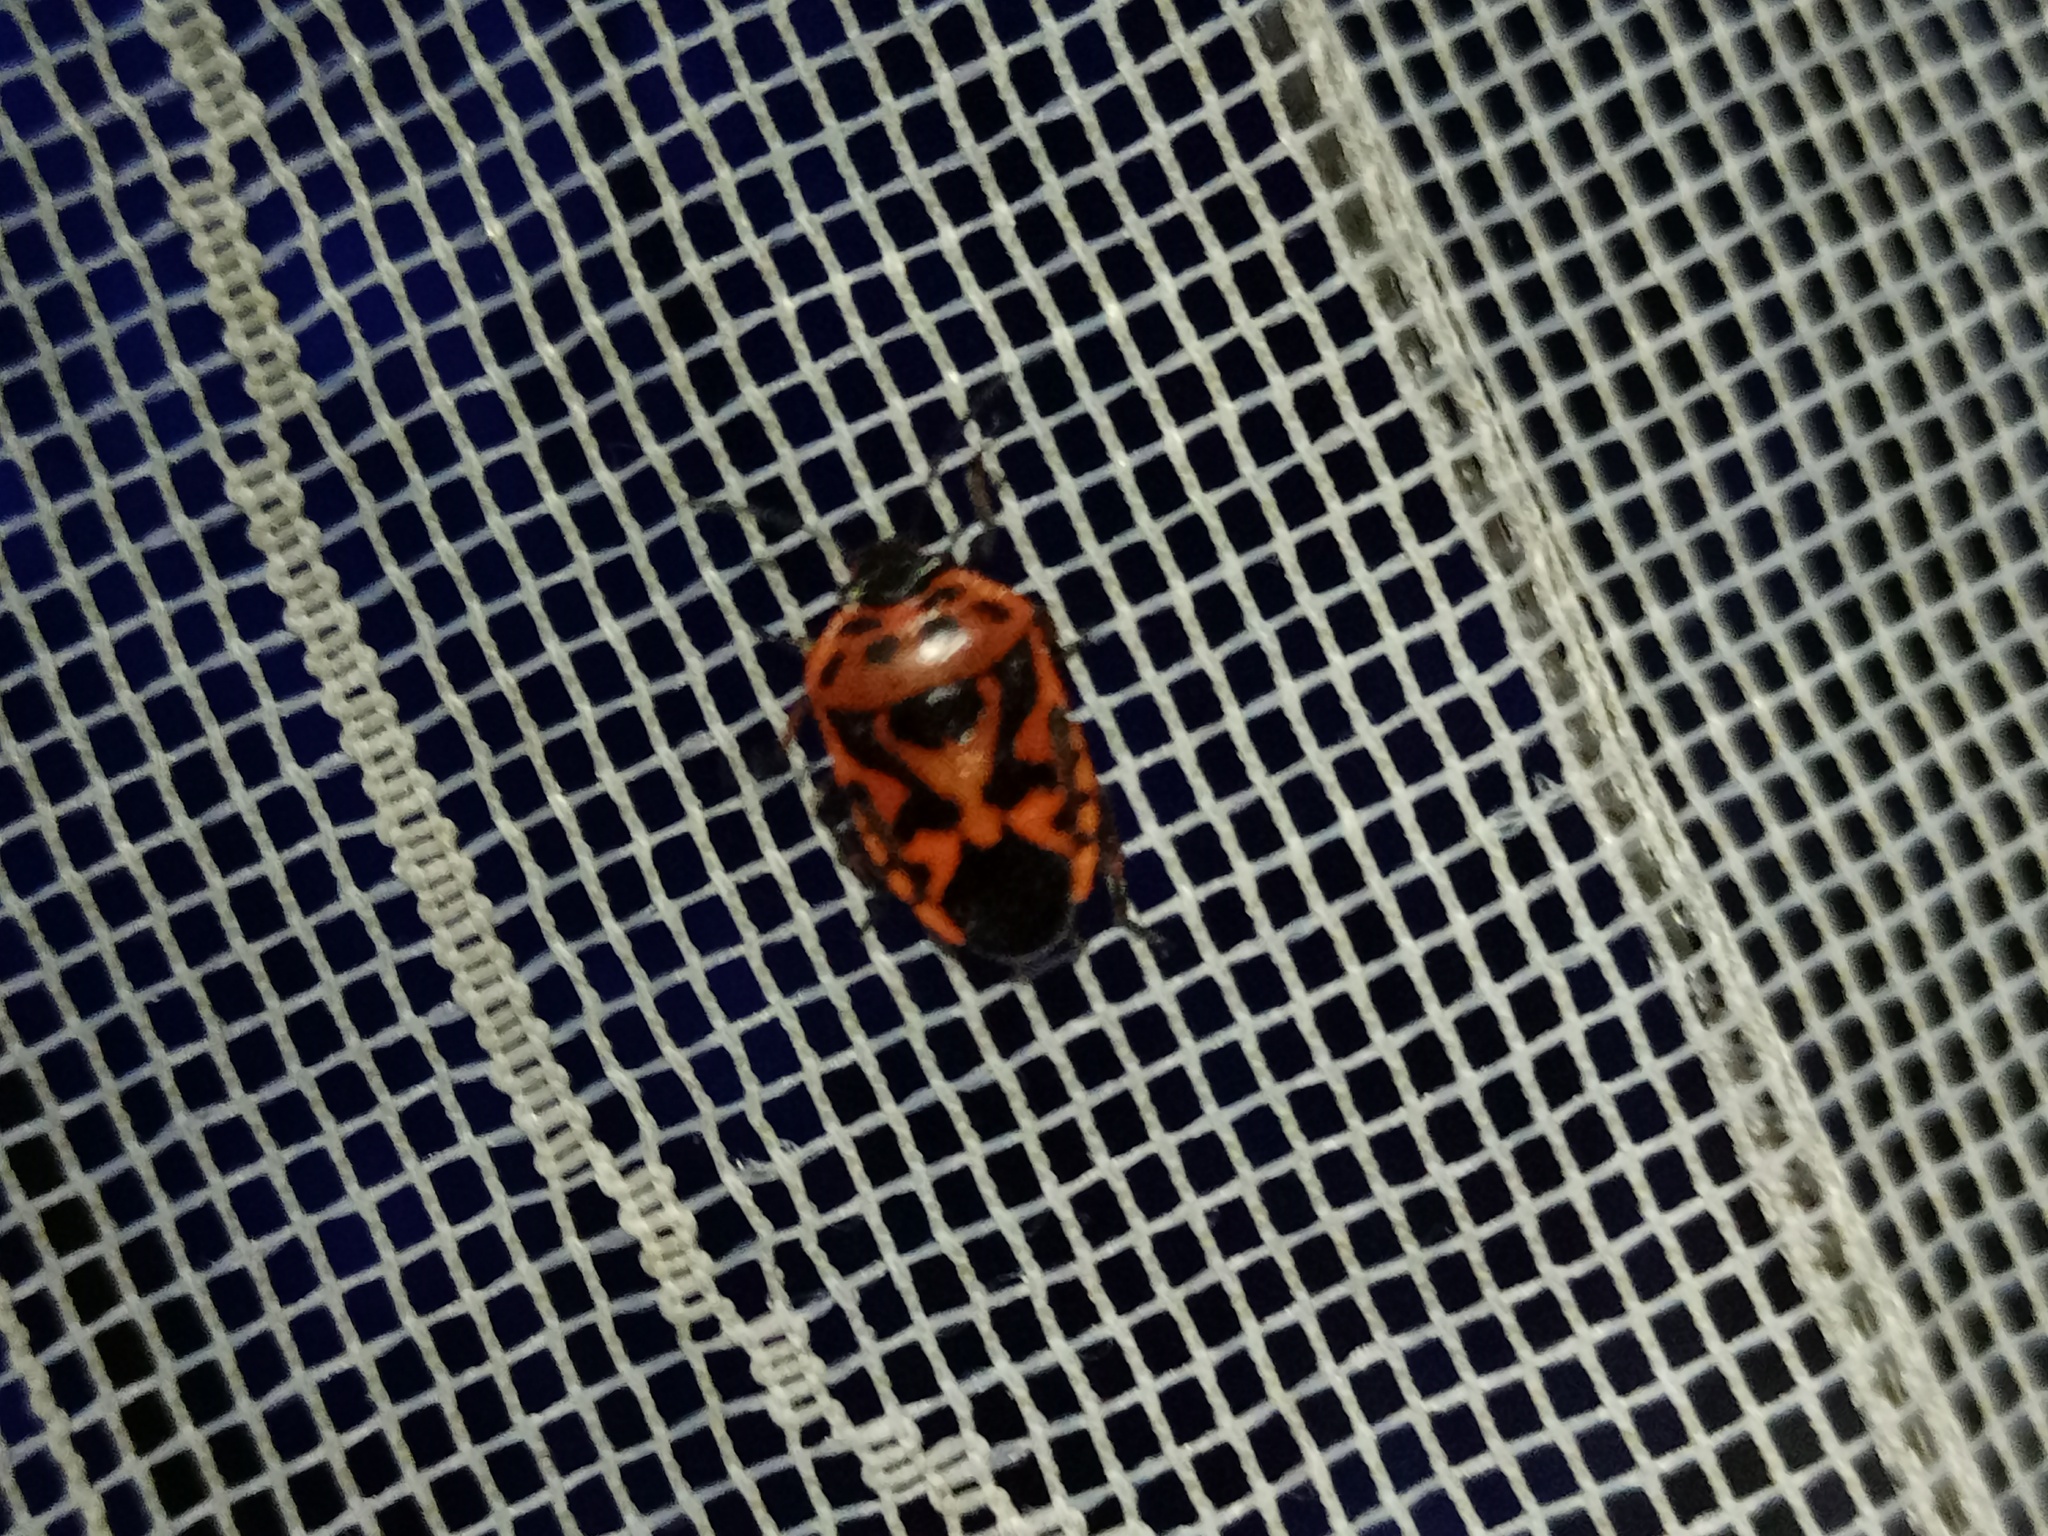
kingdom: Animalia
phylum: Arthropoda
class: Insecta
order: Hemiptera
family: Pentatomidae
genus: Eurydema
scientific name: Eurydema ornata
